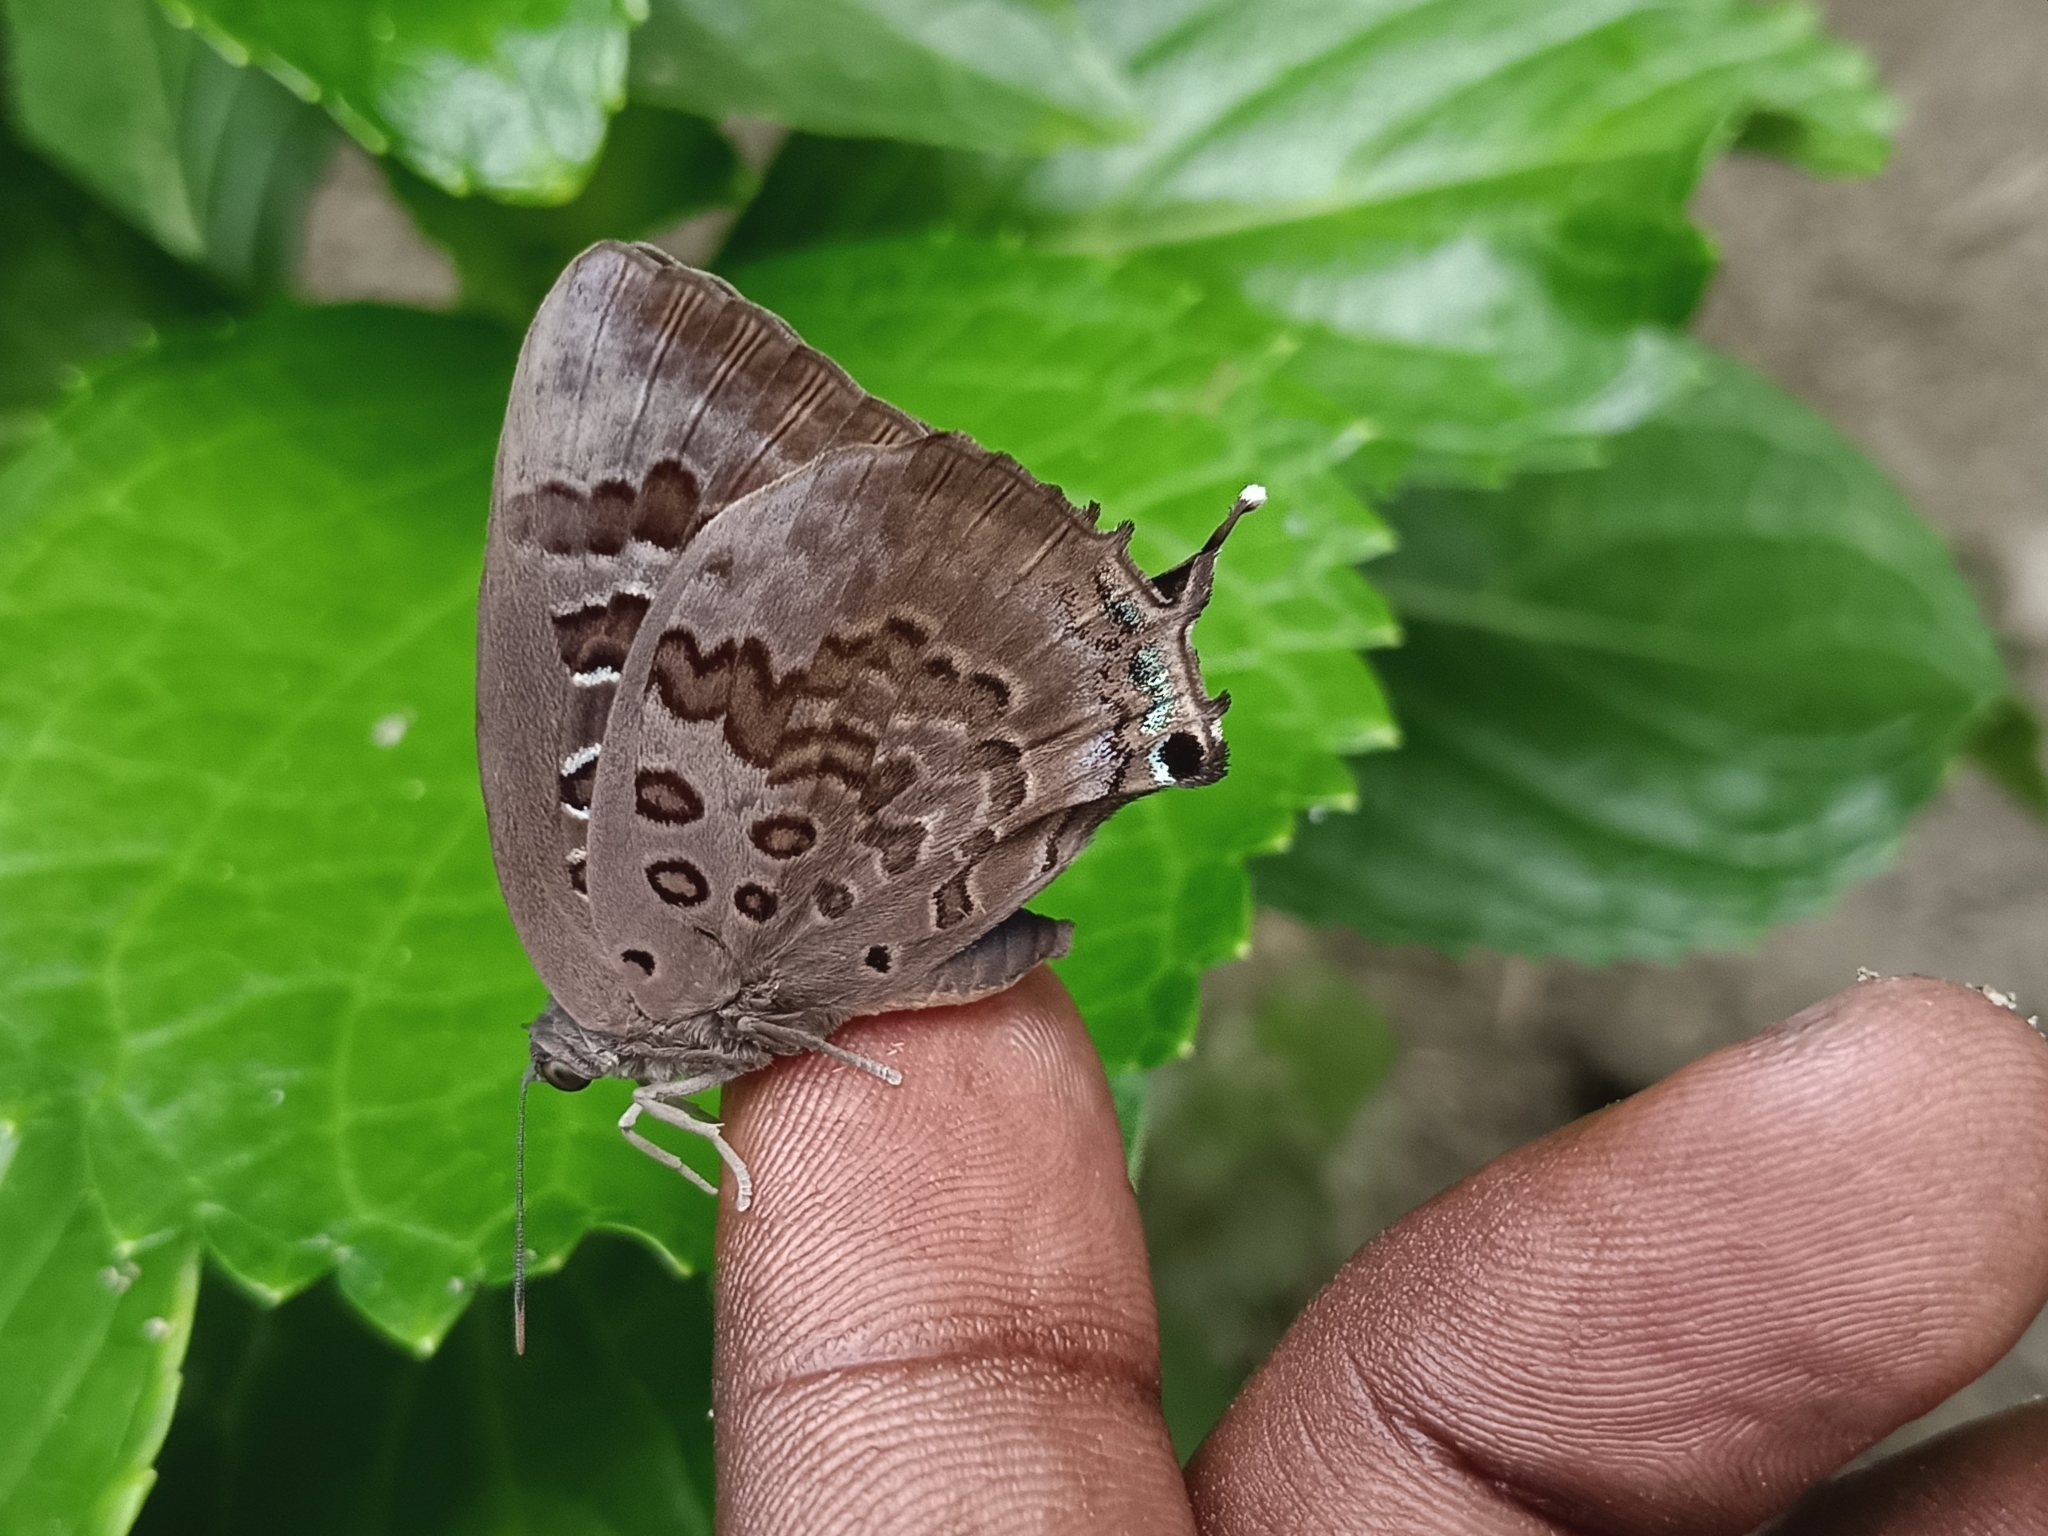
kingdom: Animalia
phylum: Arthropoda
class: Insecta
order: Lepidoptera
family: Lycaenidae
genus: Arhopala
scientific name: Arhopala amantes
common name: Large oakblue
